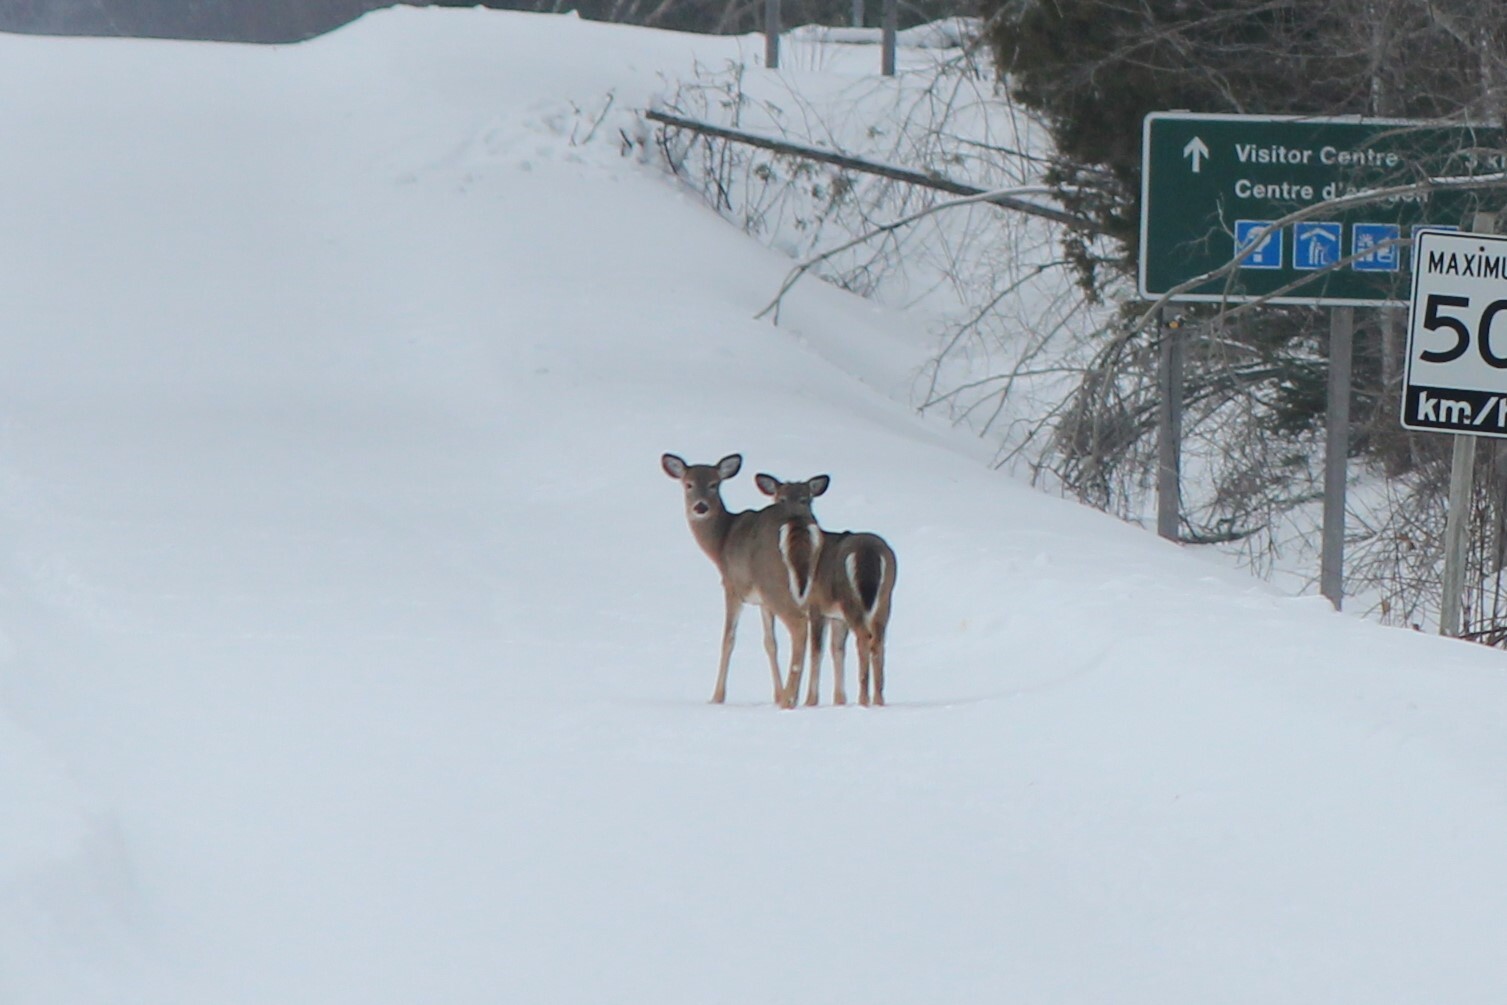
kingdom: Animalia
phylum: Chordata
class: Mammalia
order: Artiodactyla
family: Cervidae
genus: Odocoileus
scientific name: Odocoileus virginianus
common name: White-tailed deer
